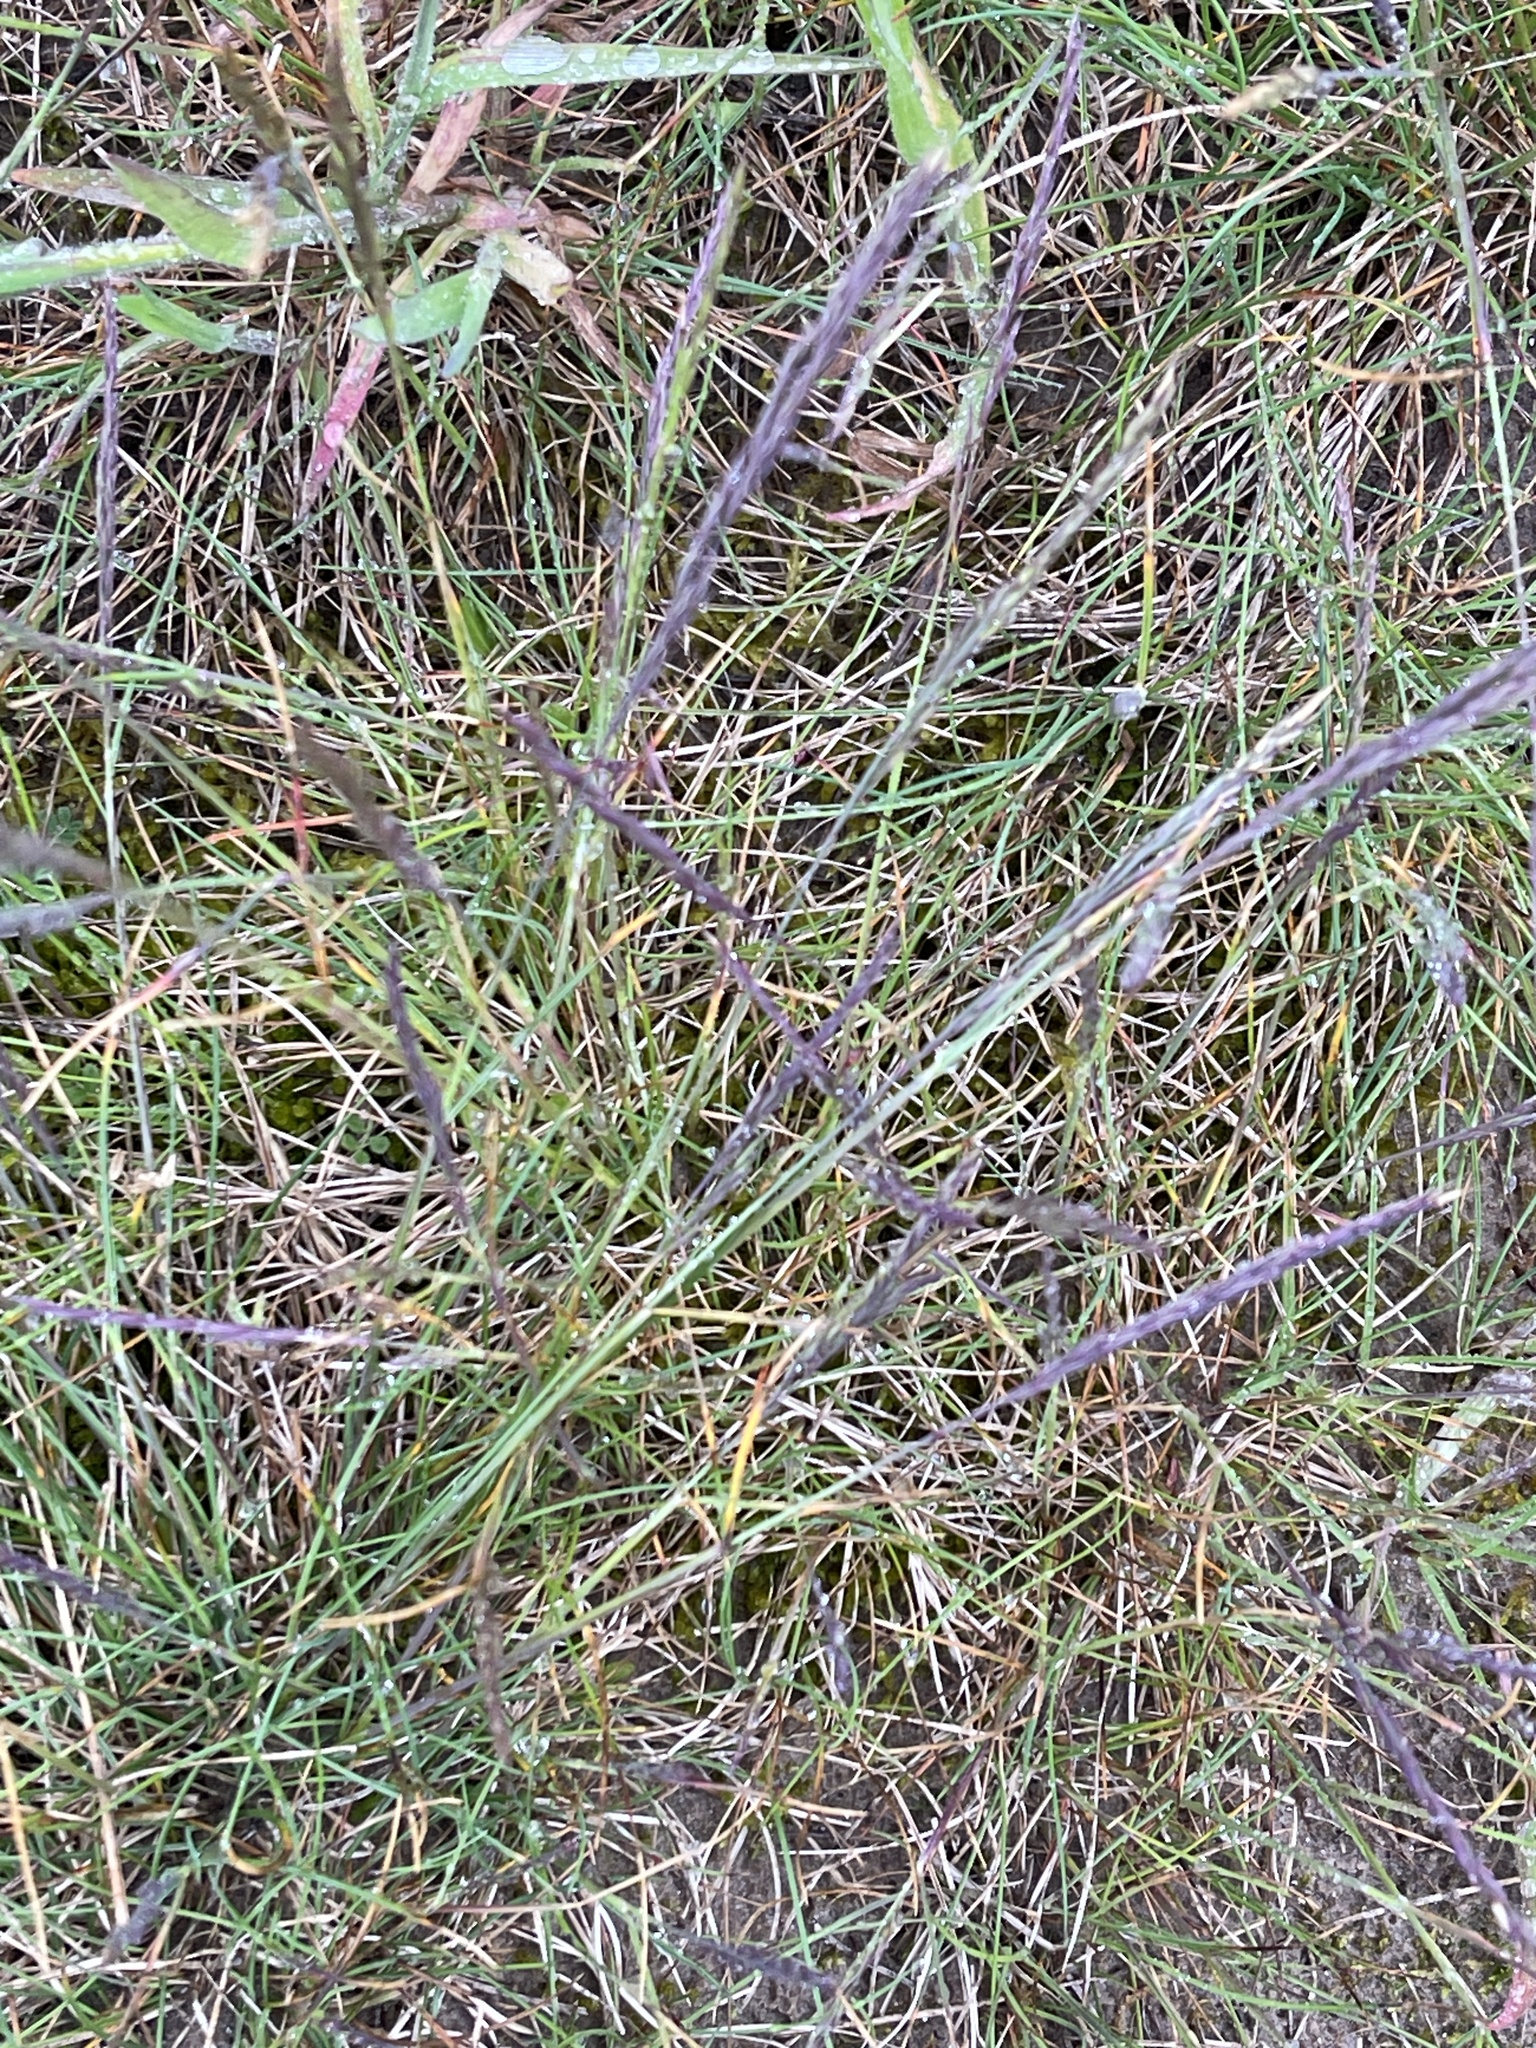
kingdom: Plantae
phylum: Tracheophyta
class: Liliopsida
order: Poales
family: Poaceae
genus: Festuca
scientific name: Festuca rubra
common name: Red fescue
